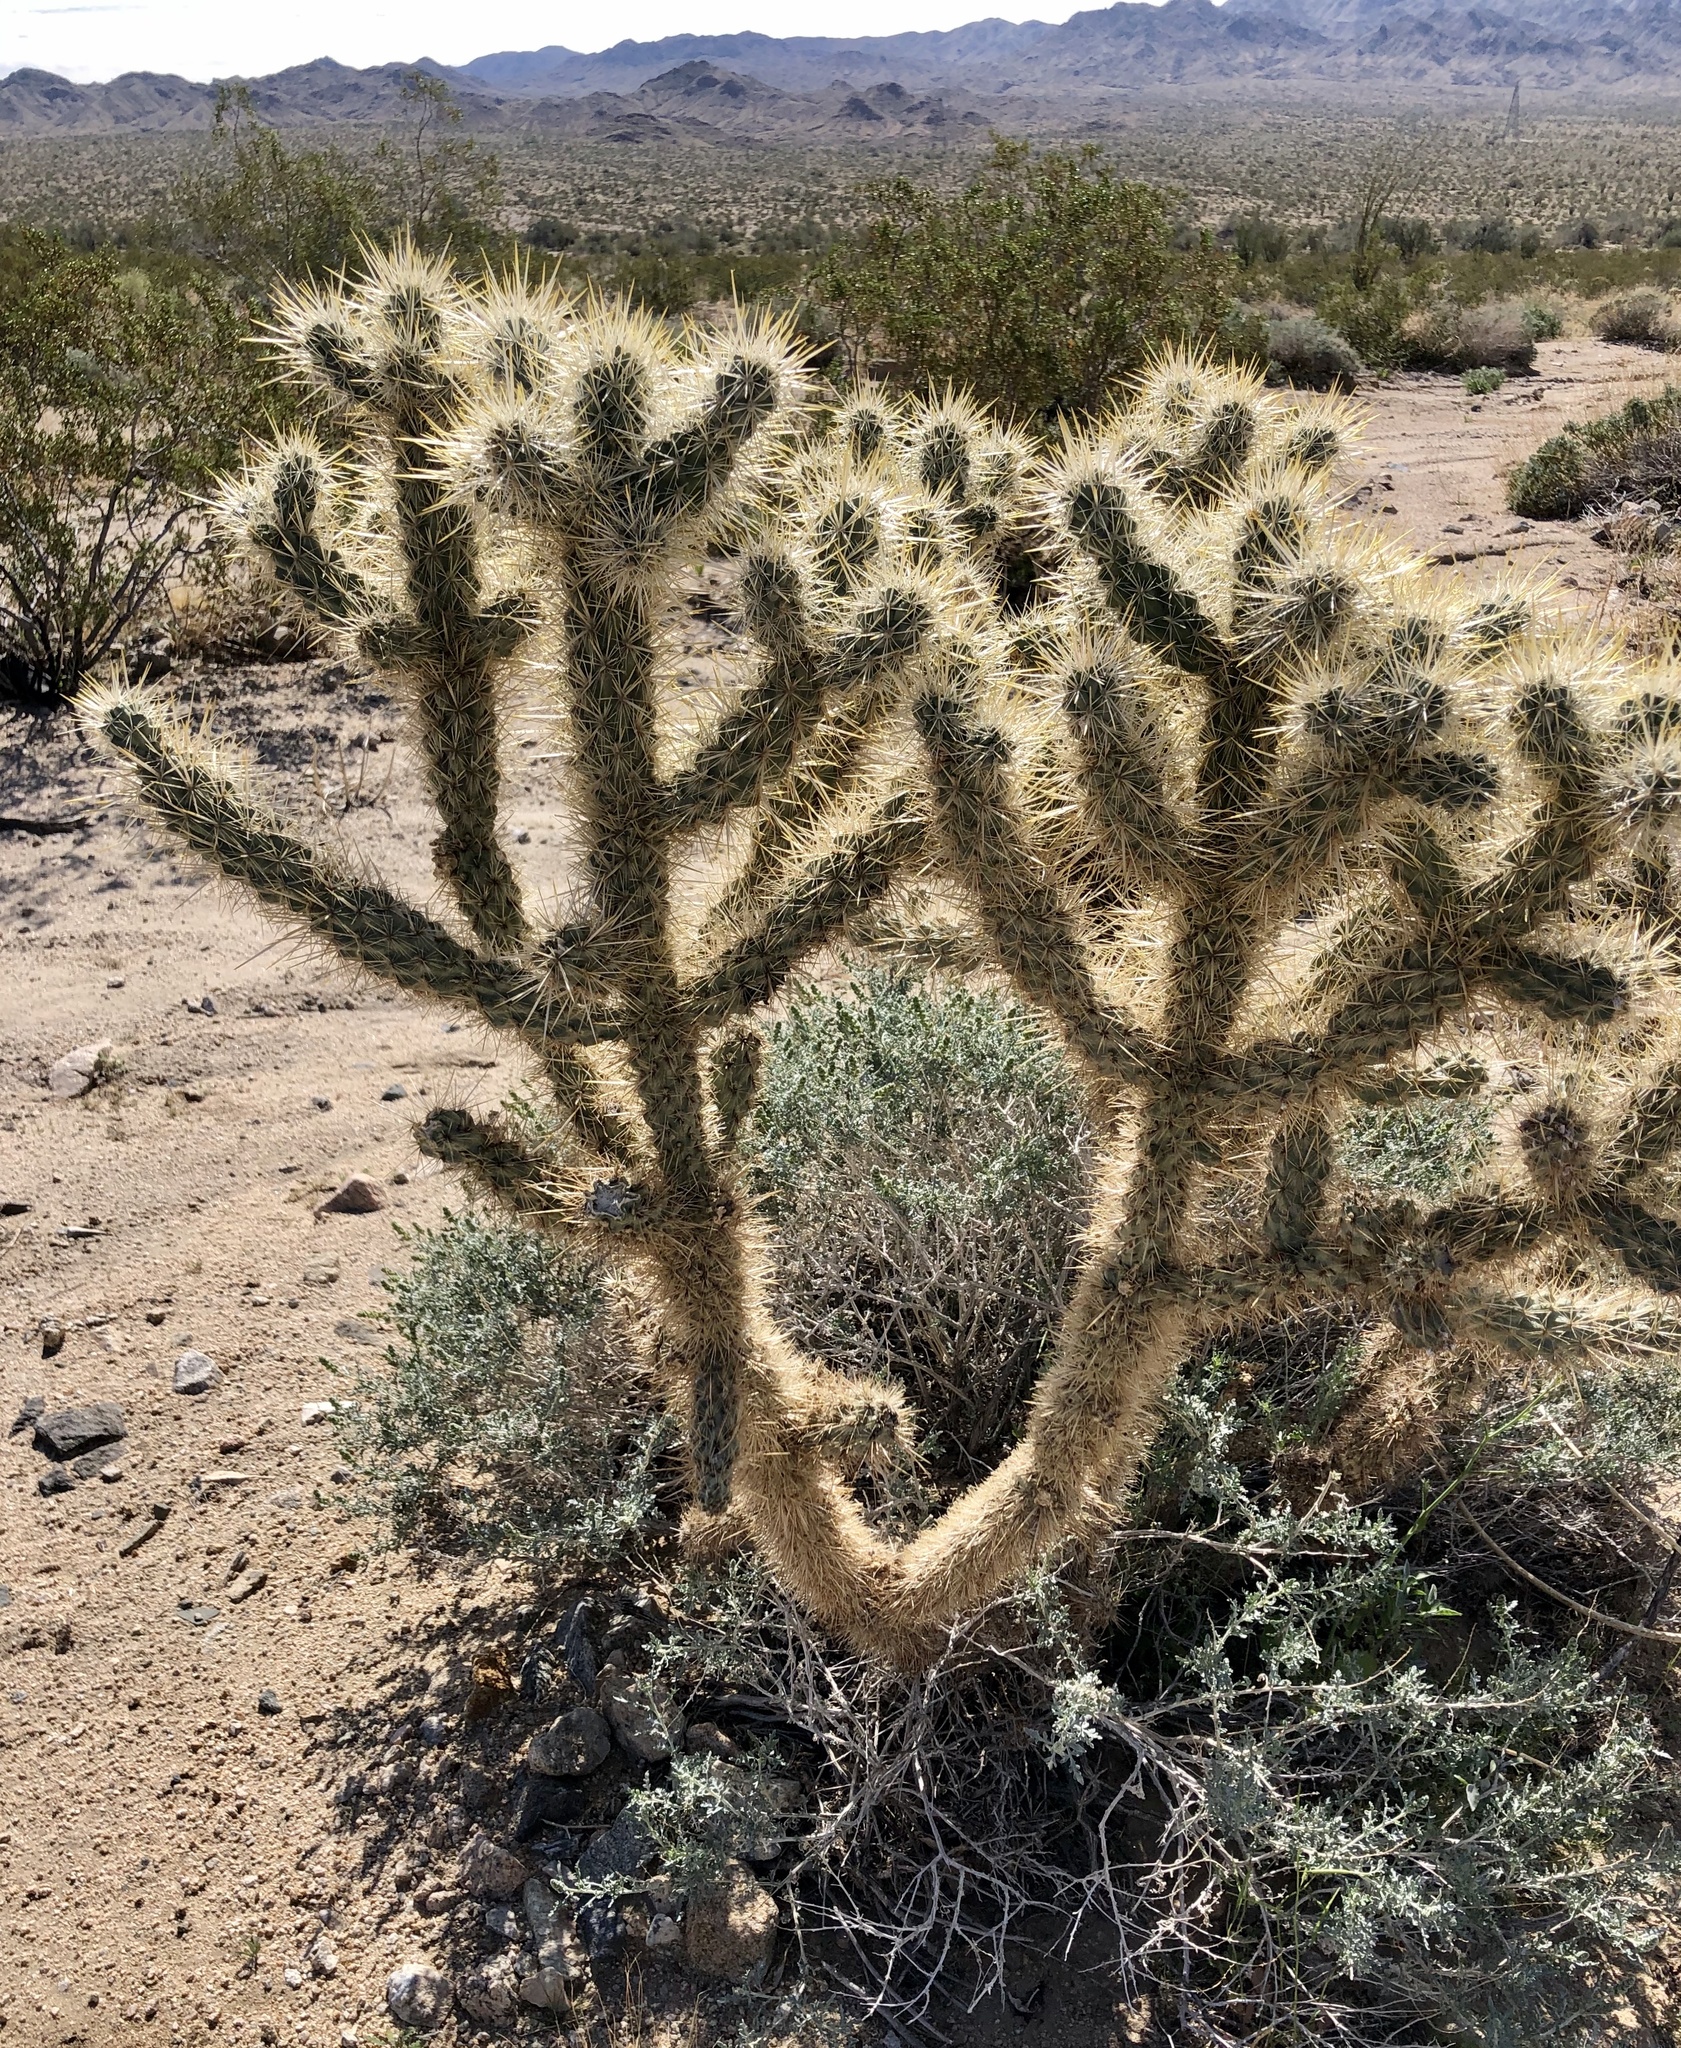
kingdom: Plantae
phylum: Tracheophyta
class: Magnoliopsida
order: Caryophyllales
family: Cactaceae
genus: Cylindropuntia
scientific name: Cylindropuntia echinocarpa
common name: Ground cholla
